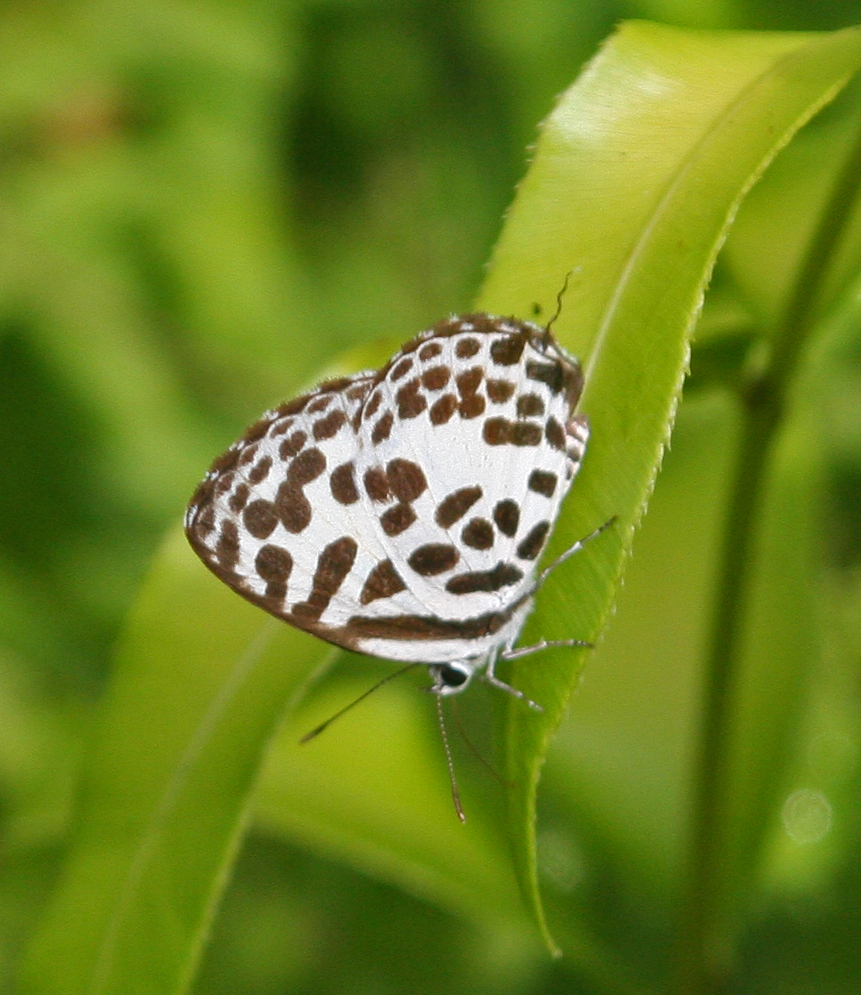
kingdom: Animalia
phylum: Arthropoda
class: Insecta
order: Lepidoptera
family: Lycaenidae
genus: Castalius
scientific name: Castalius rosimon
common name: Common pierrot
